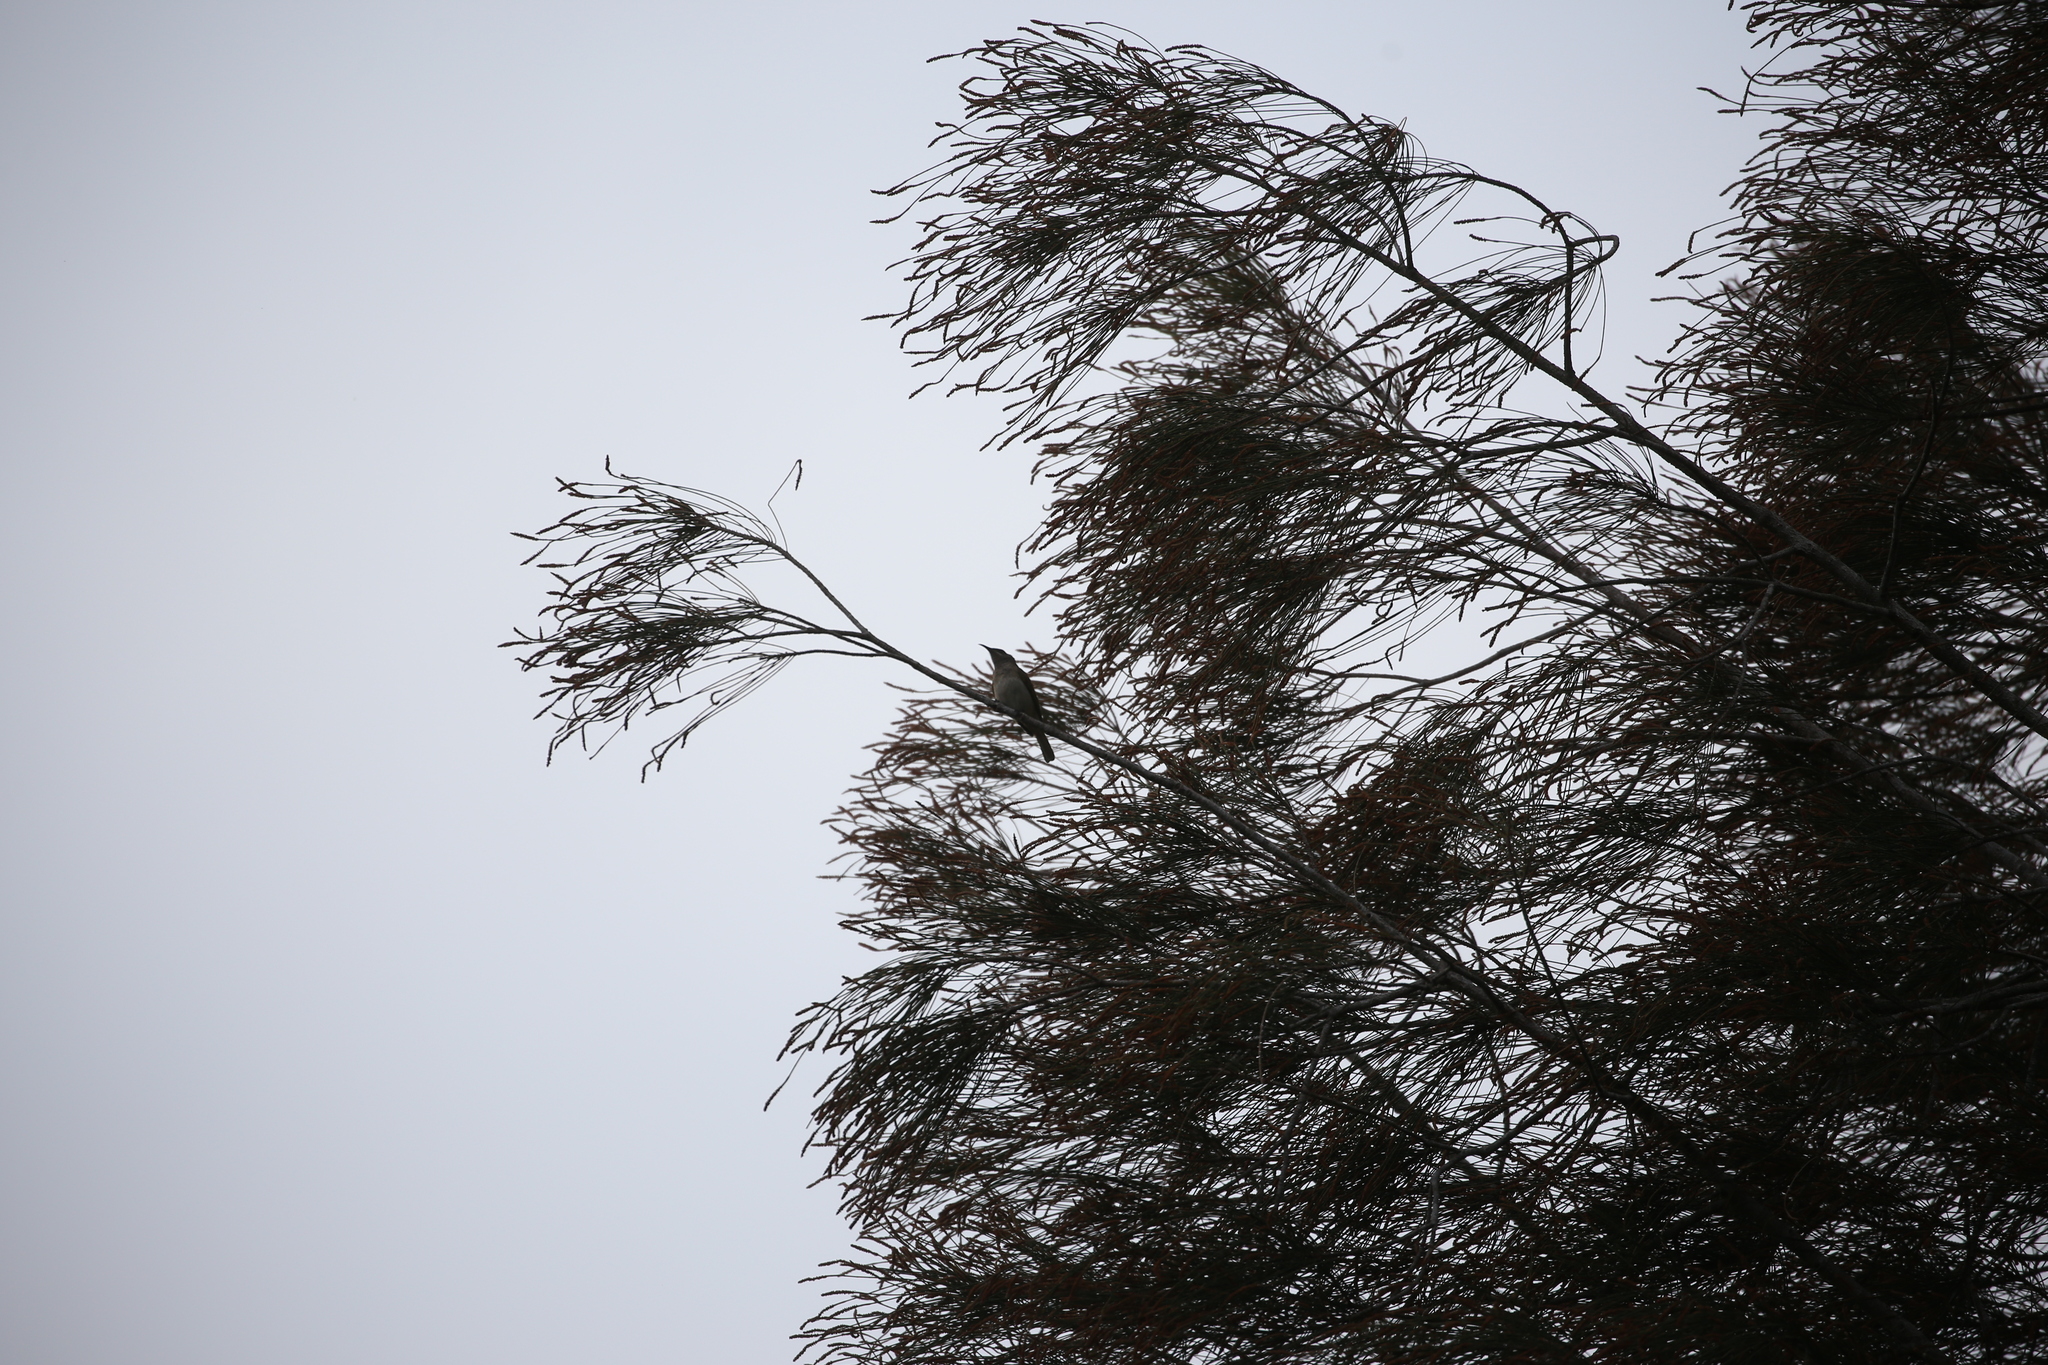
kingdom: Animalia
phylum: Chordata
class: Aves
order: Passeriformes
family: Meliphagidae
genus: Lichmera
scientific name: Lichmera indistincta
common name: Brown honeyeater
